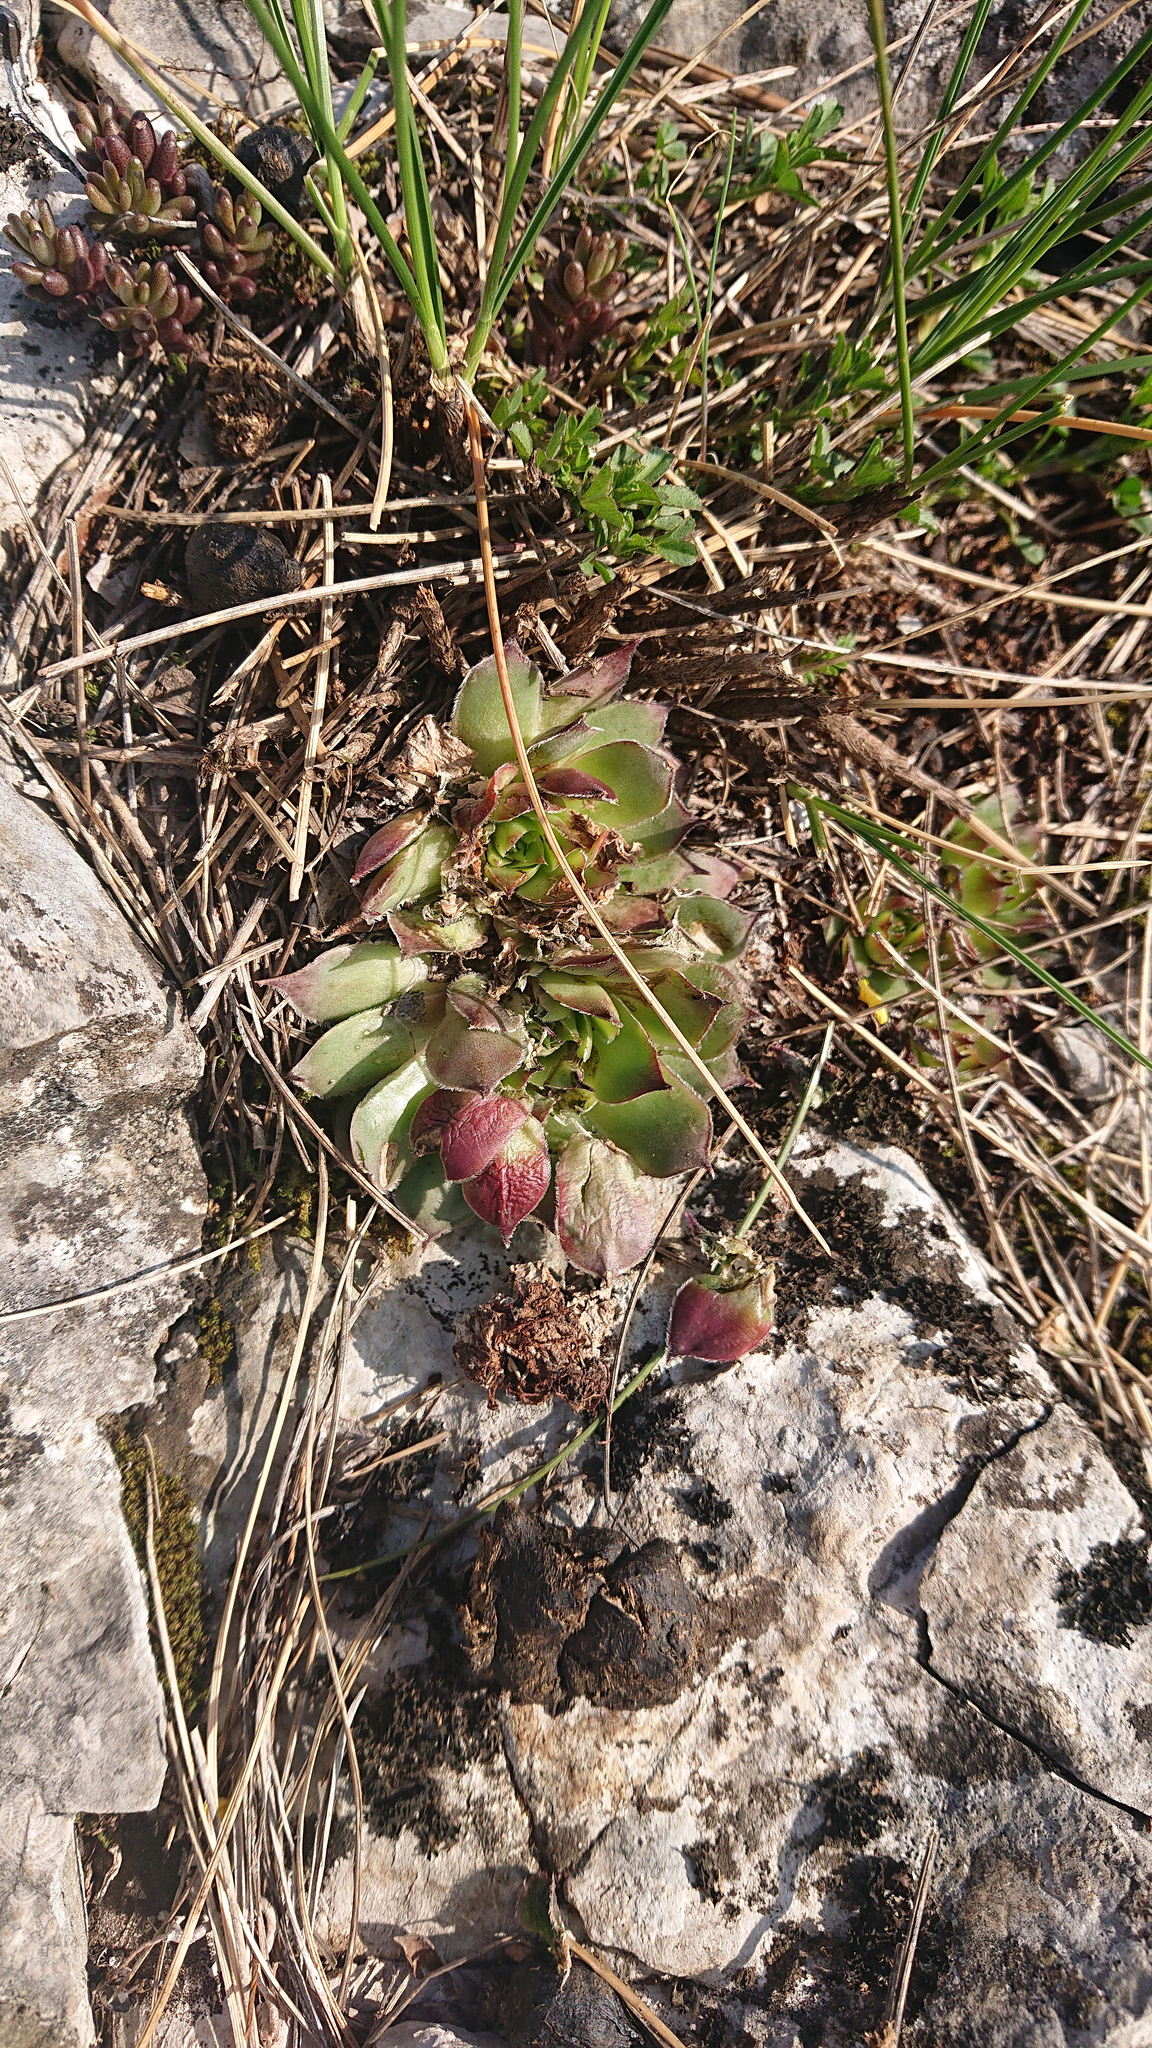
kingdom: Plantae
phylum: Tracheophyta
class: Magnoliopsida
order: Saxifragales
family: Crassulaceae
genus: Sempervivum
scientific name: Sempervivum tectorum
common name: House-leek
